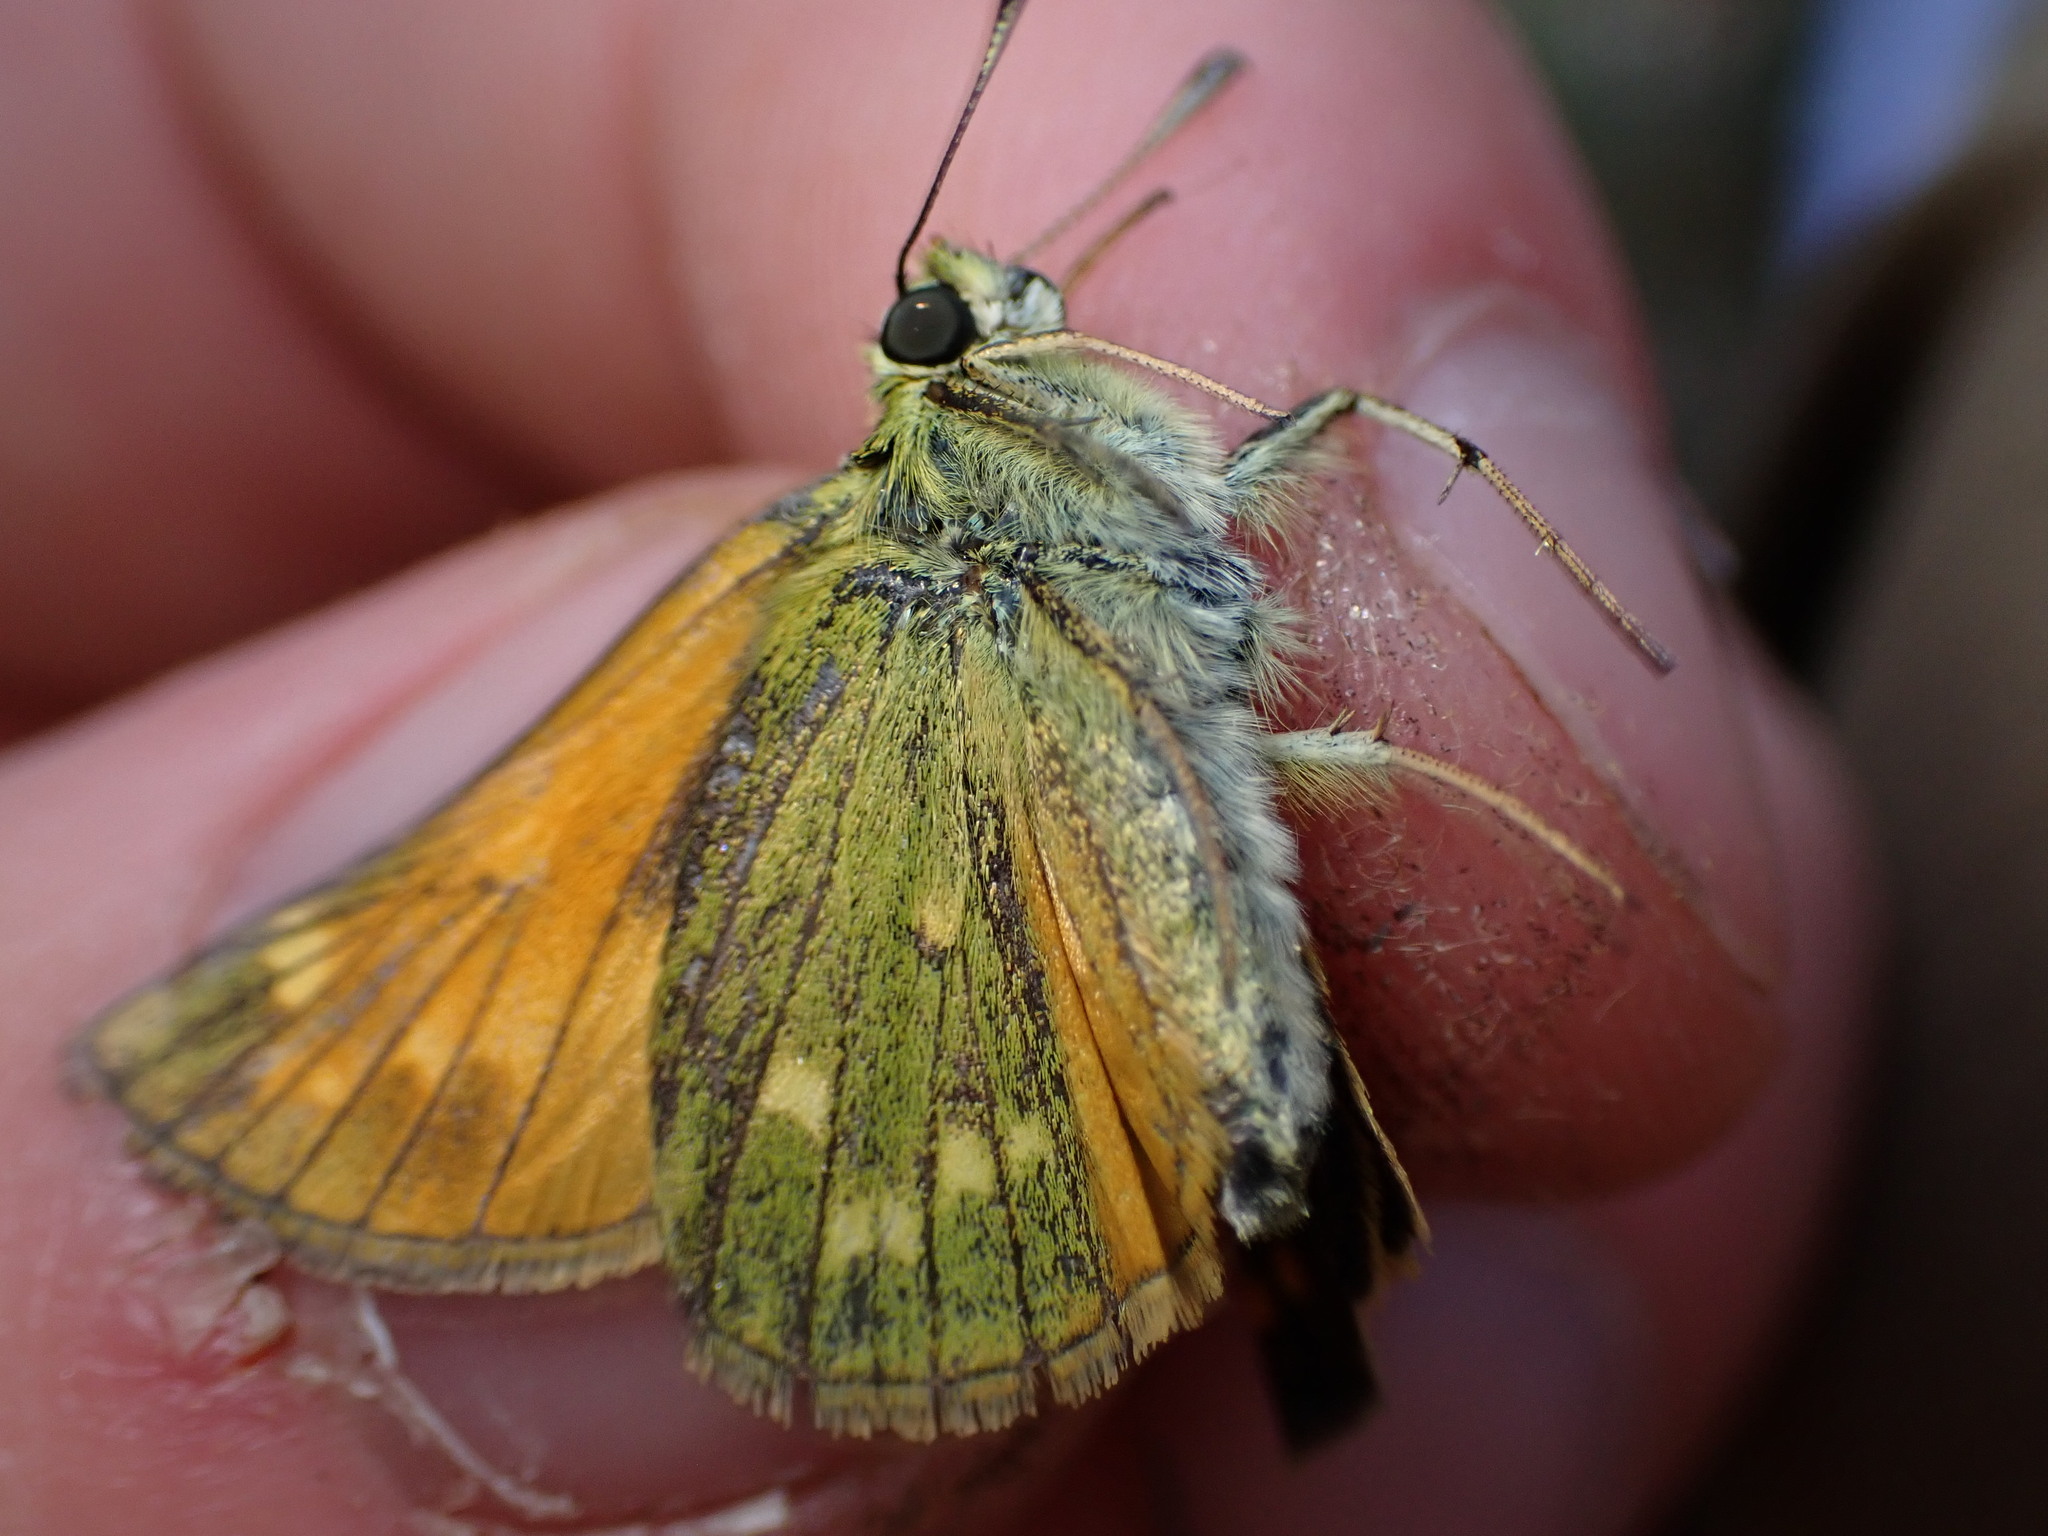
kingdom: Animalia
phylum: Arthropoda
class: Insecta
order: Lepidoptera
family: Hesperiidae
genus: Ochlodes
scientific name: Ochlodes venata
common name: Large skipper
